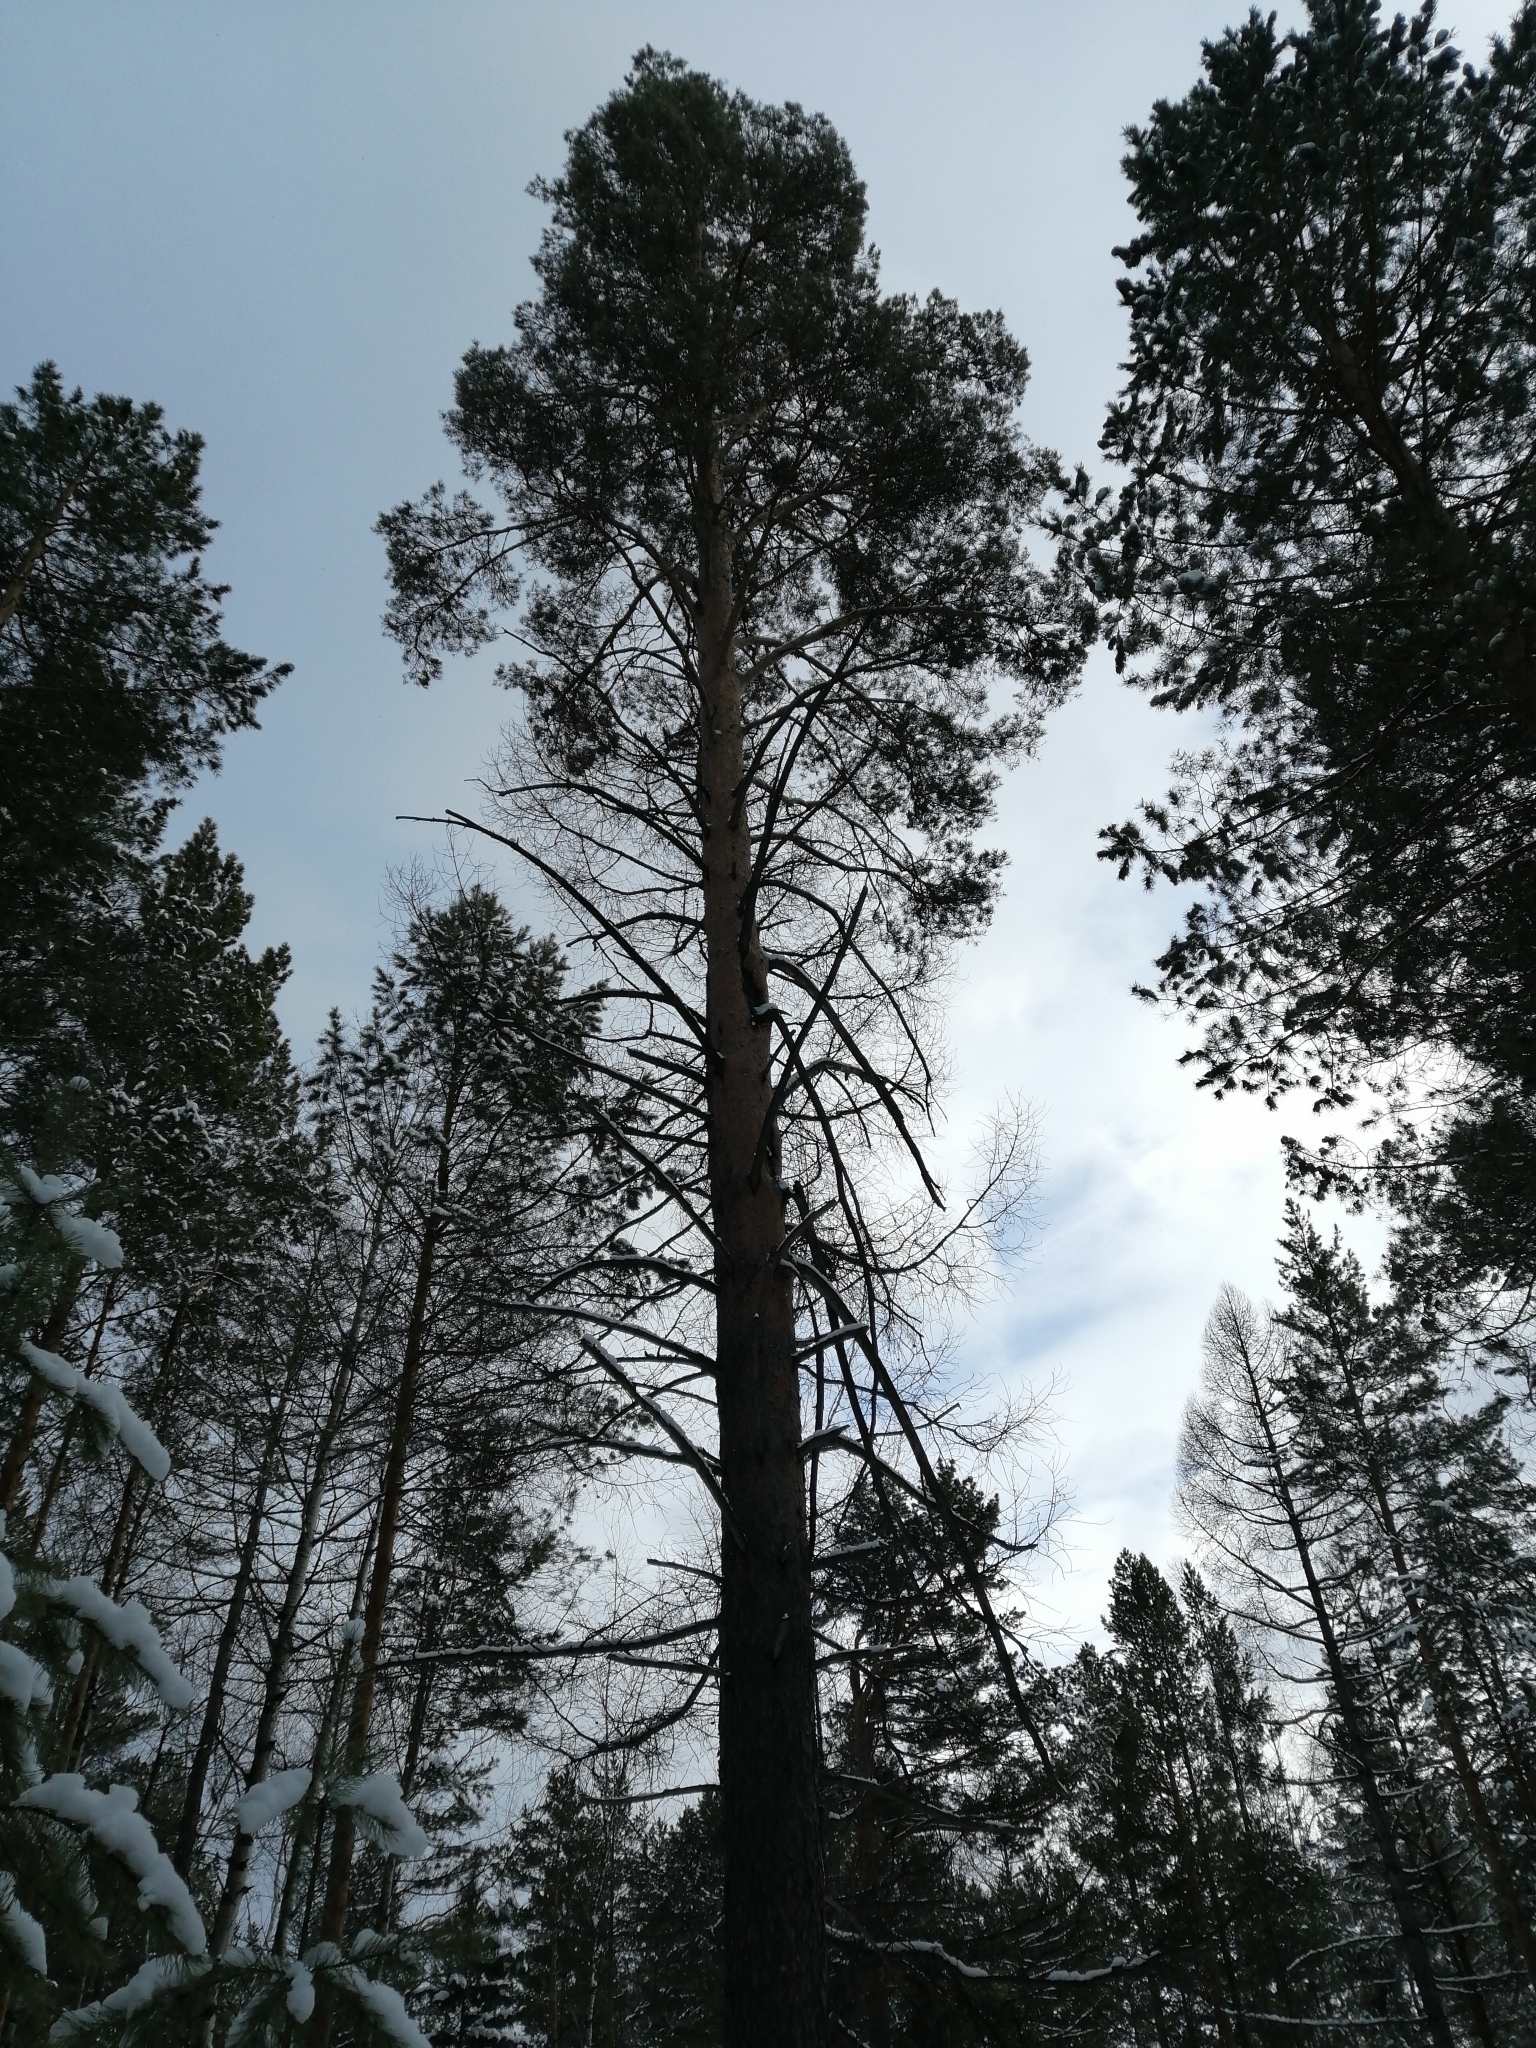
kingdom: Plantae
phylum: Tracheophyta
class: Pinopsida
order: Pinales
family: Pinaceae
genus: Pinus
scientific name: Pinus sylvestris
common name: Scots pine
